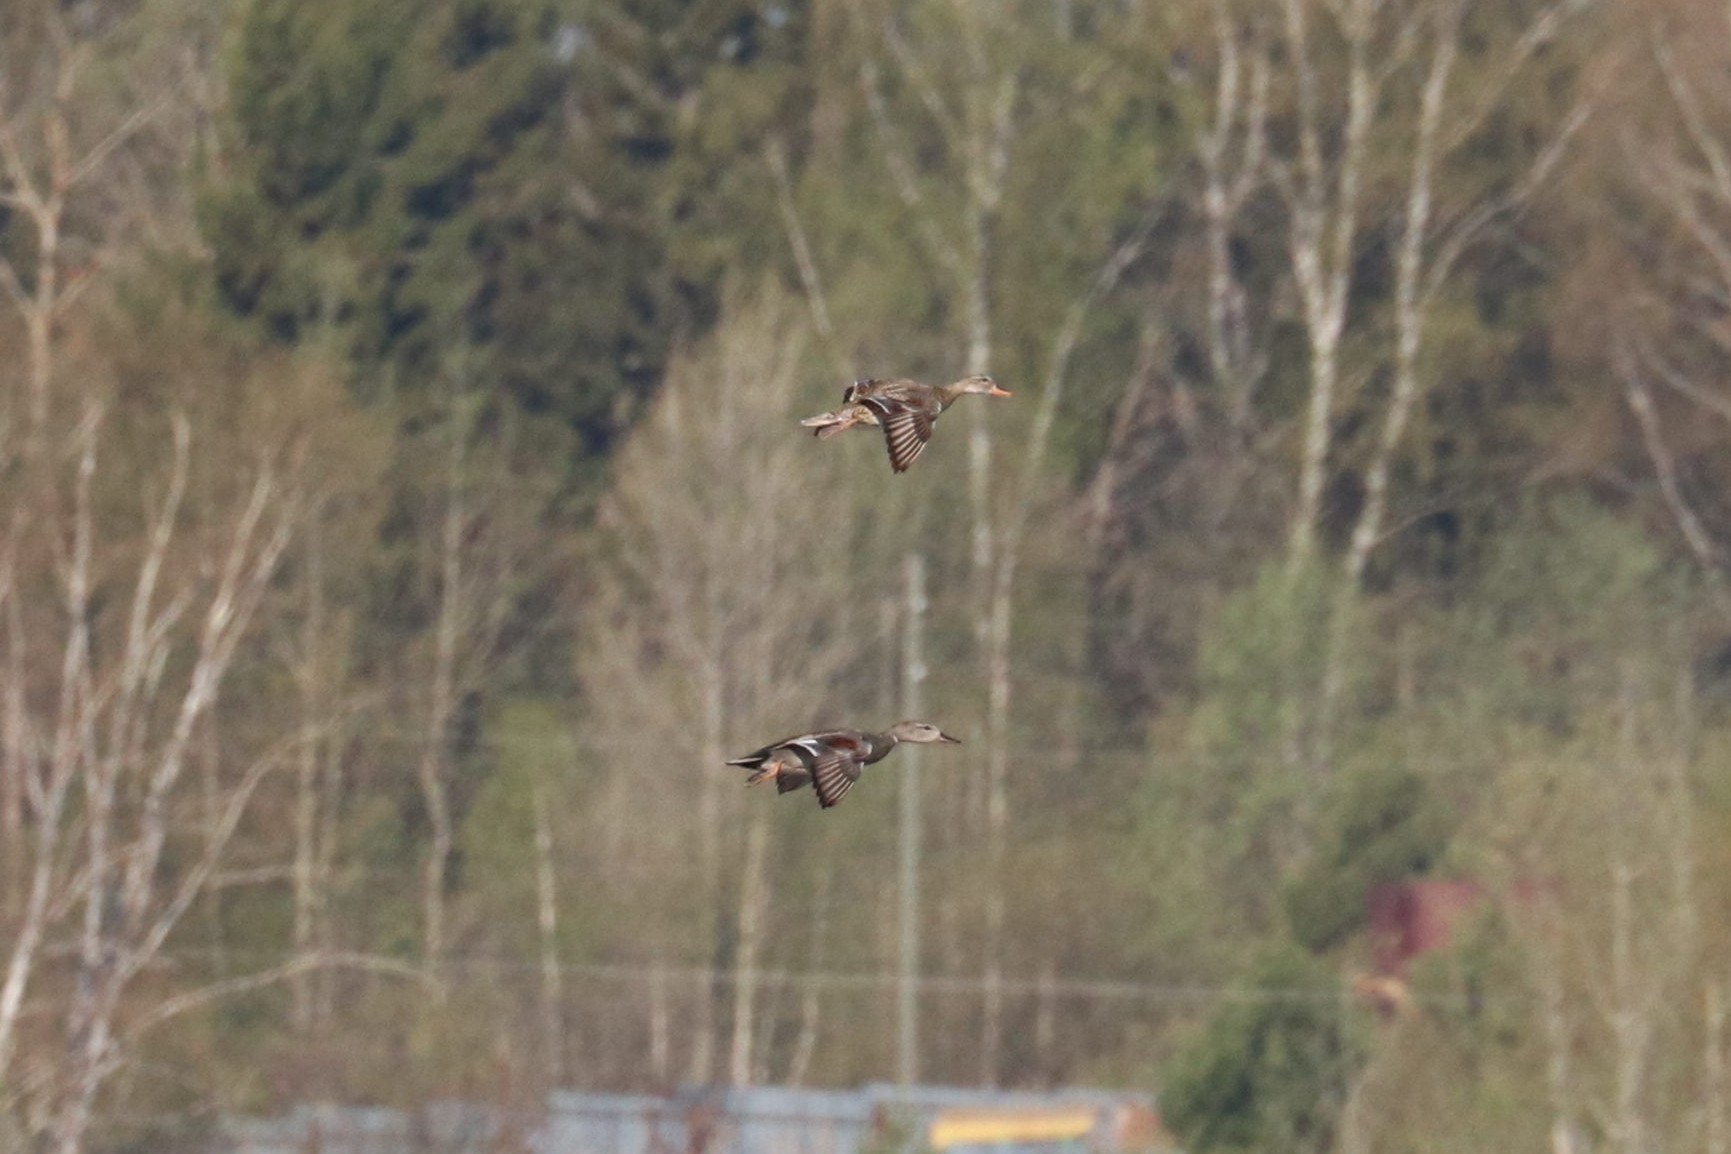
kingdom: Animalia
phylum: Chordata
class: Aves
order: Anseriformes
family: Anatidae
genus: Mareca
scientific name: Mareca strepera
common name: Gadwall
